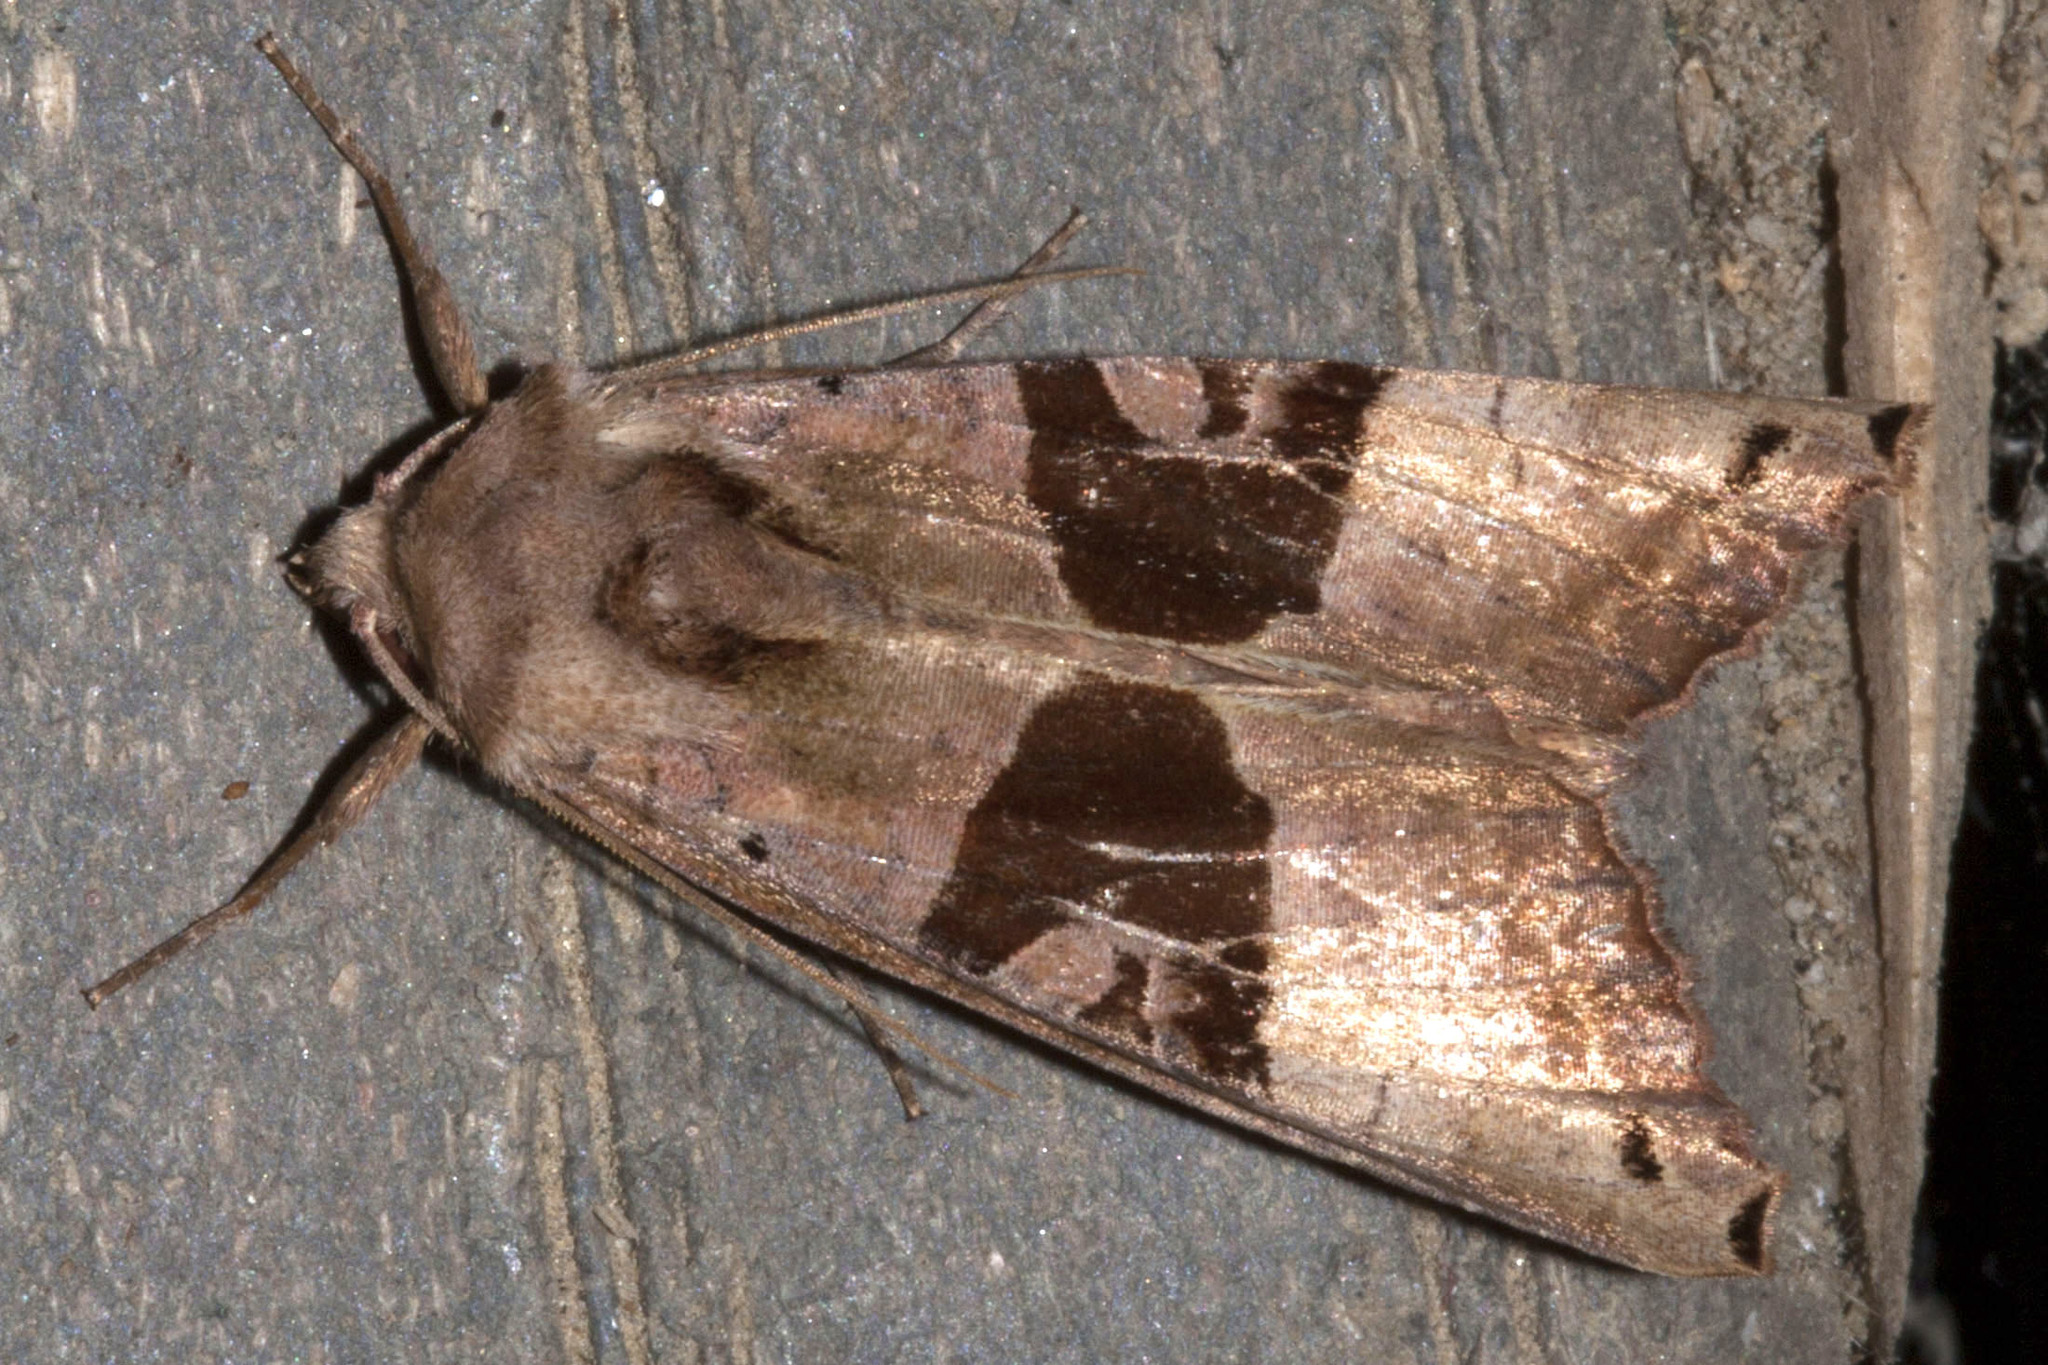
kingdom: Animalia
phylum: Arthropoda
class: Insecta
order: Lepidoptera
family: Noctuidae
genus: Phlogophora
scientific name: Phlogophora periculosa
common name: Brown angle shades
